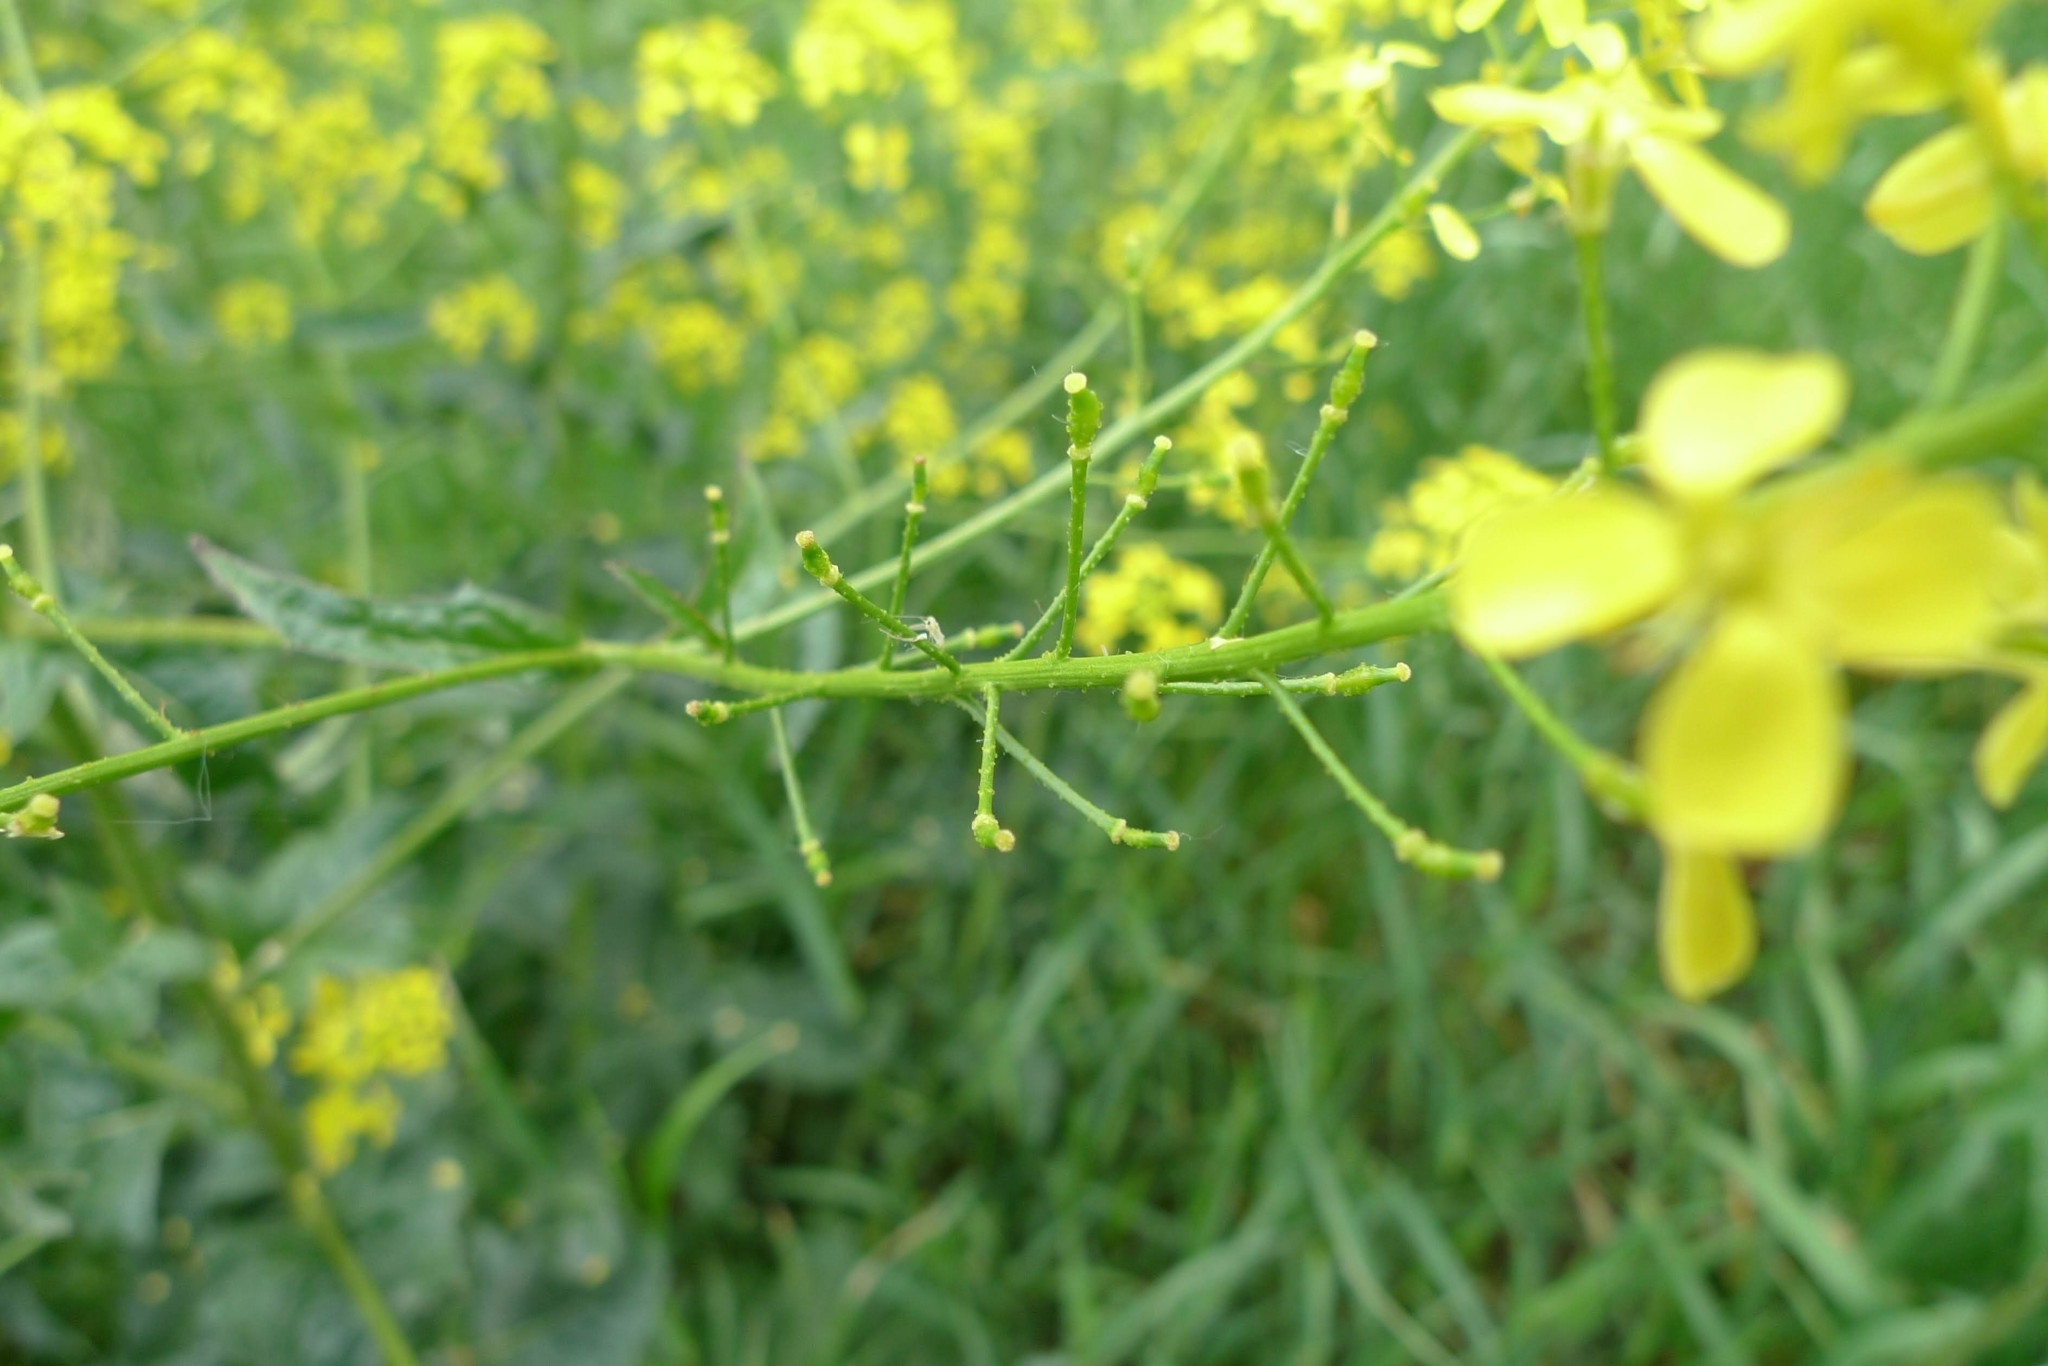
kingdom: Plantae
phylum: Tracheophyta
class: Magnoliopsida
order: Brassicales
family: Brassicaceae
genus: Bunias
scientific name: Bunias orientalis
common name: Warty-cabbage
